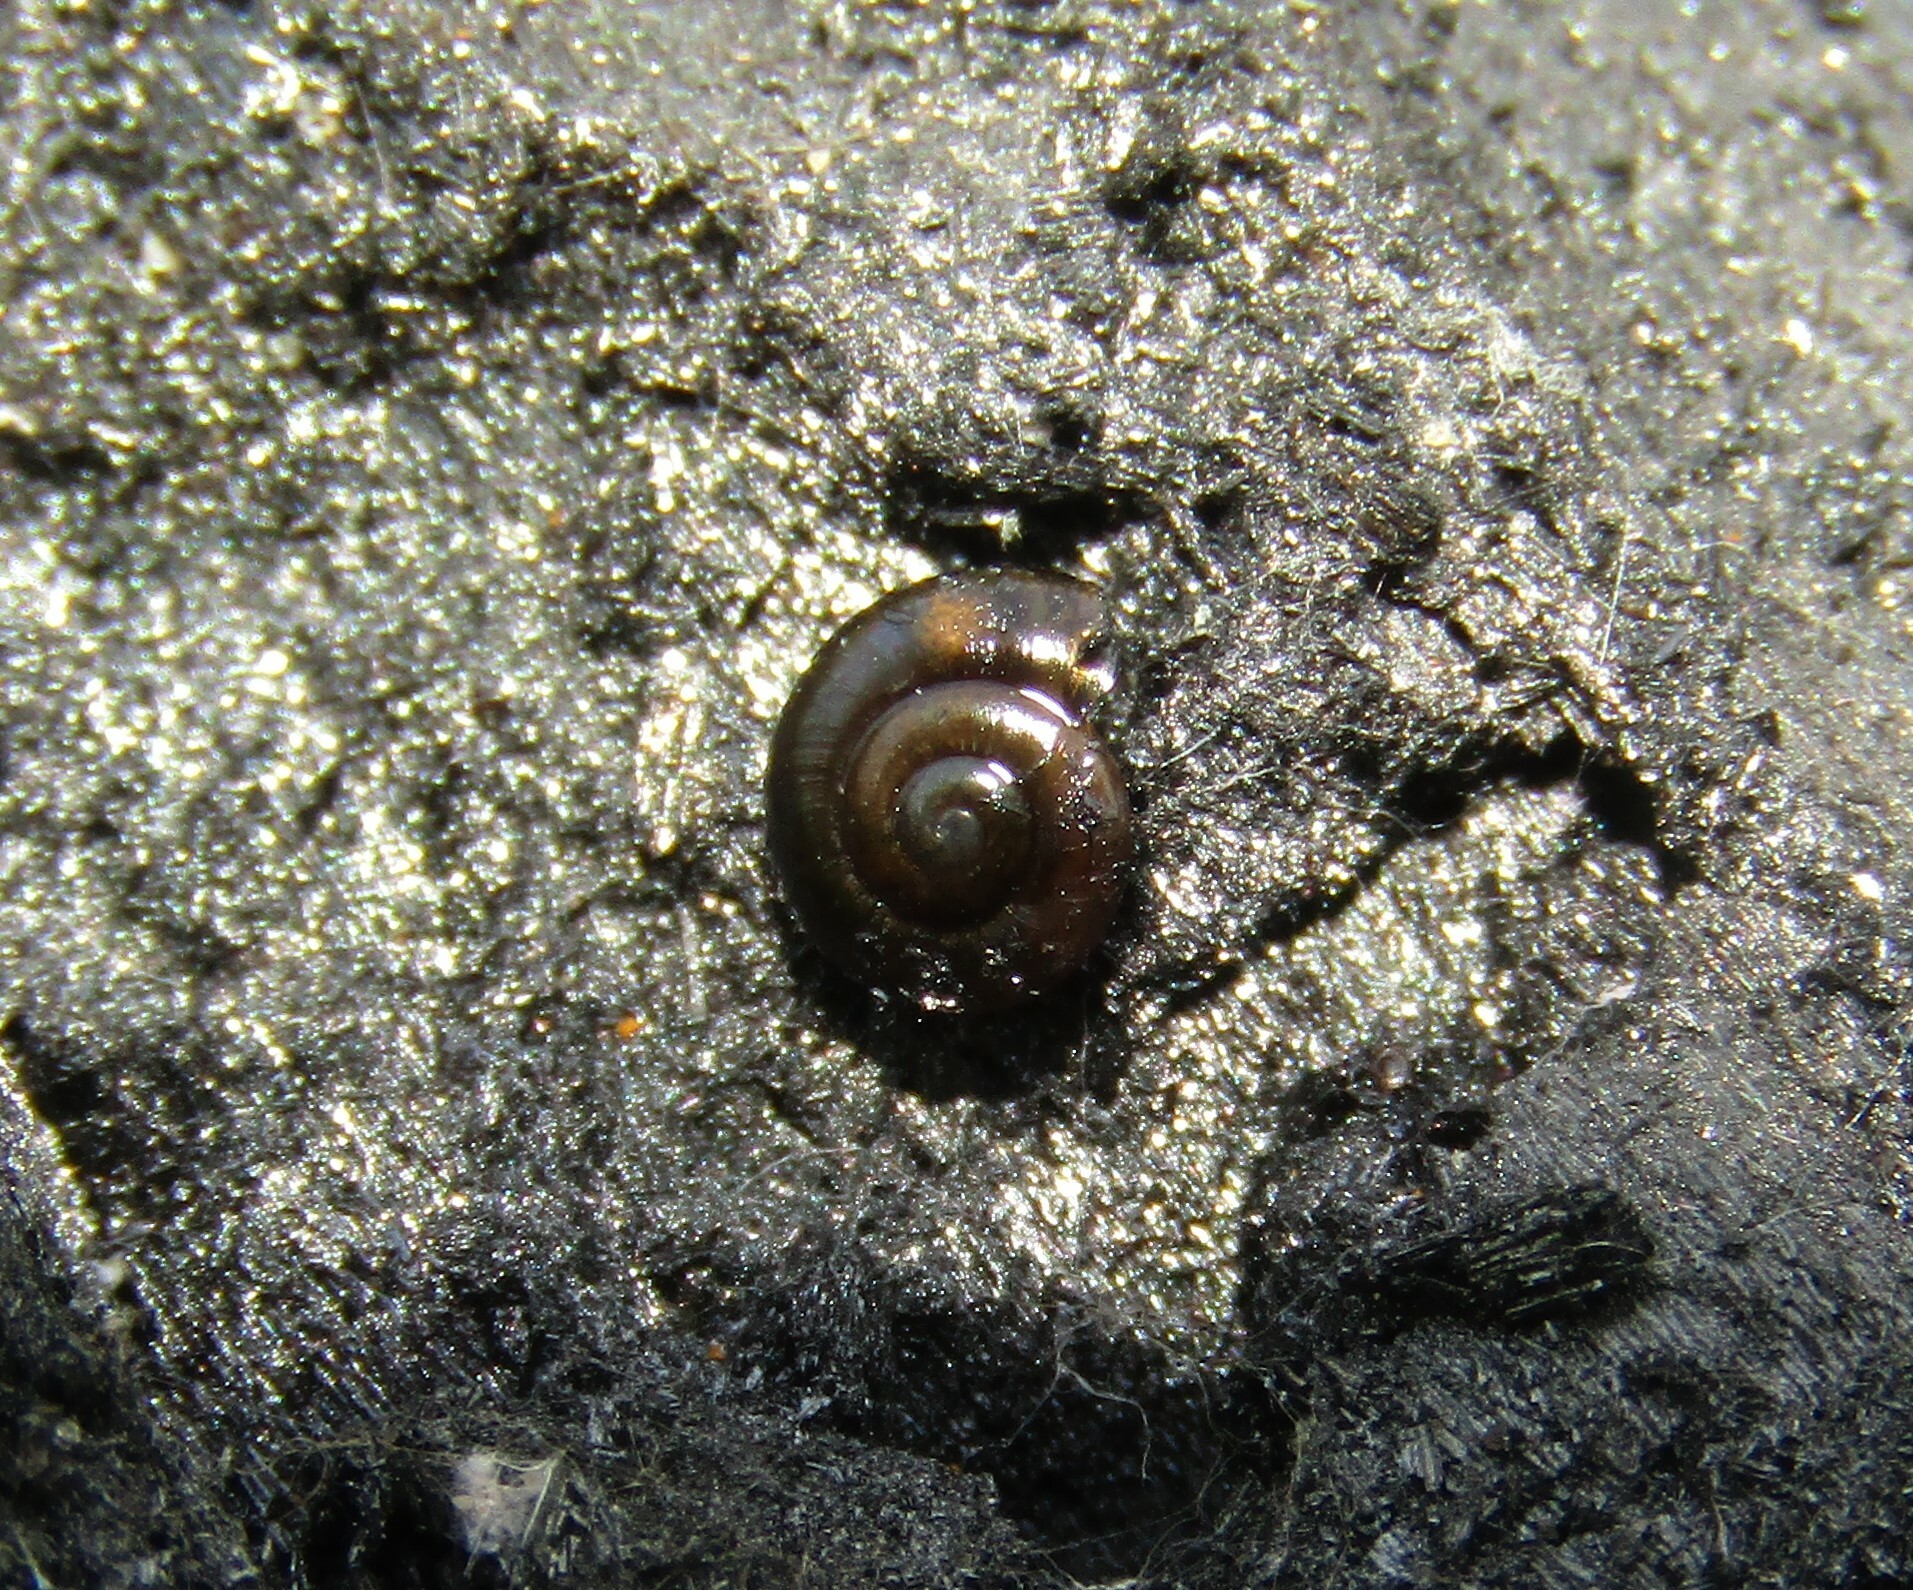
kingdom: Animalia
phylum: Mollusca
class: Gastropoda
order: Stylommatophora
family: Gastrodontidae
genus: Zonitoides
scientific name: Zonitoides nitidus
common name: Shiny glass snail
